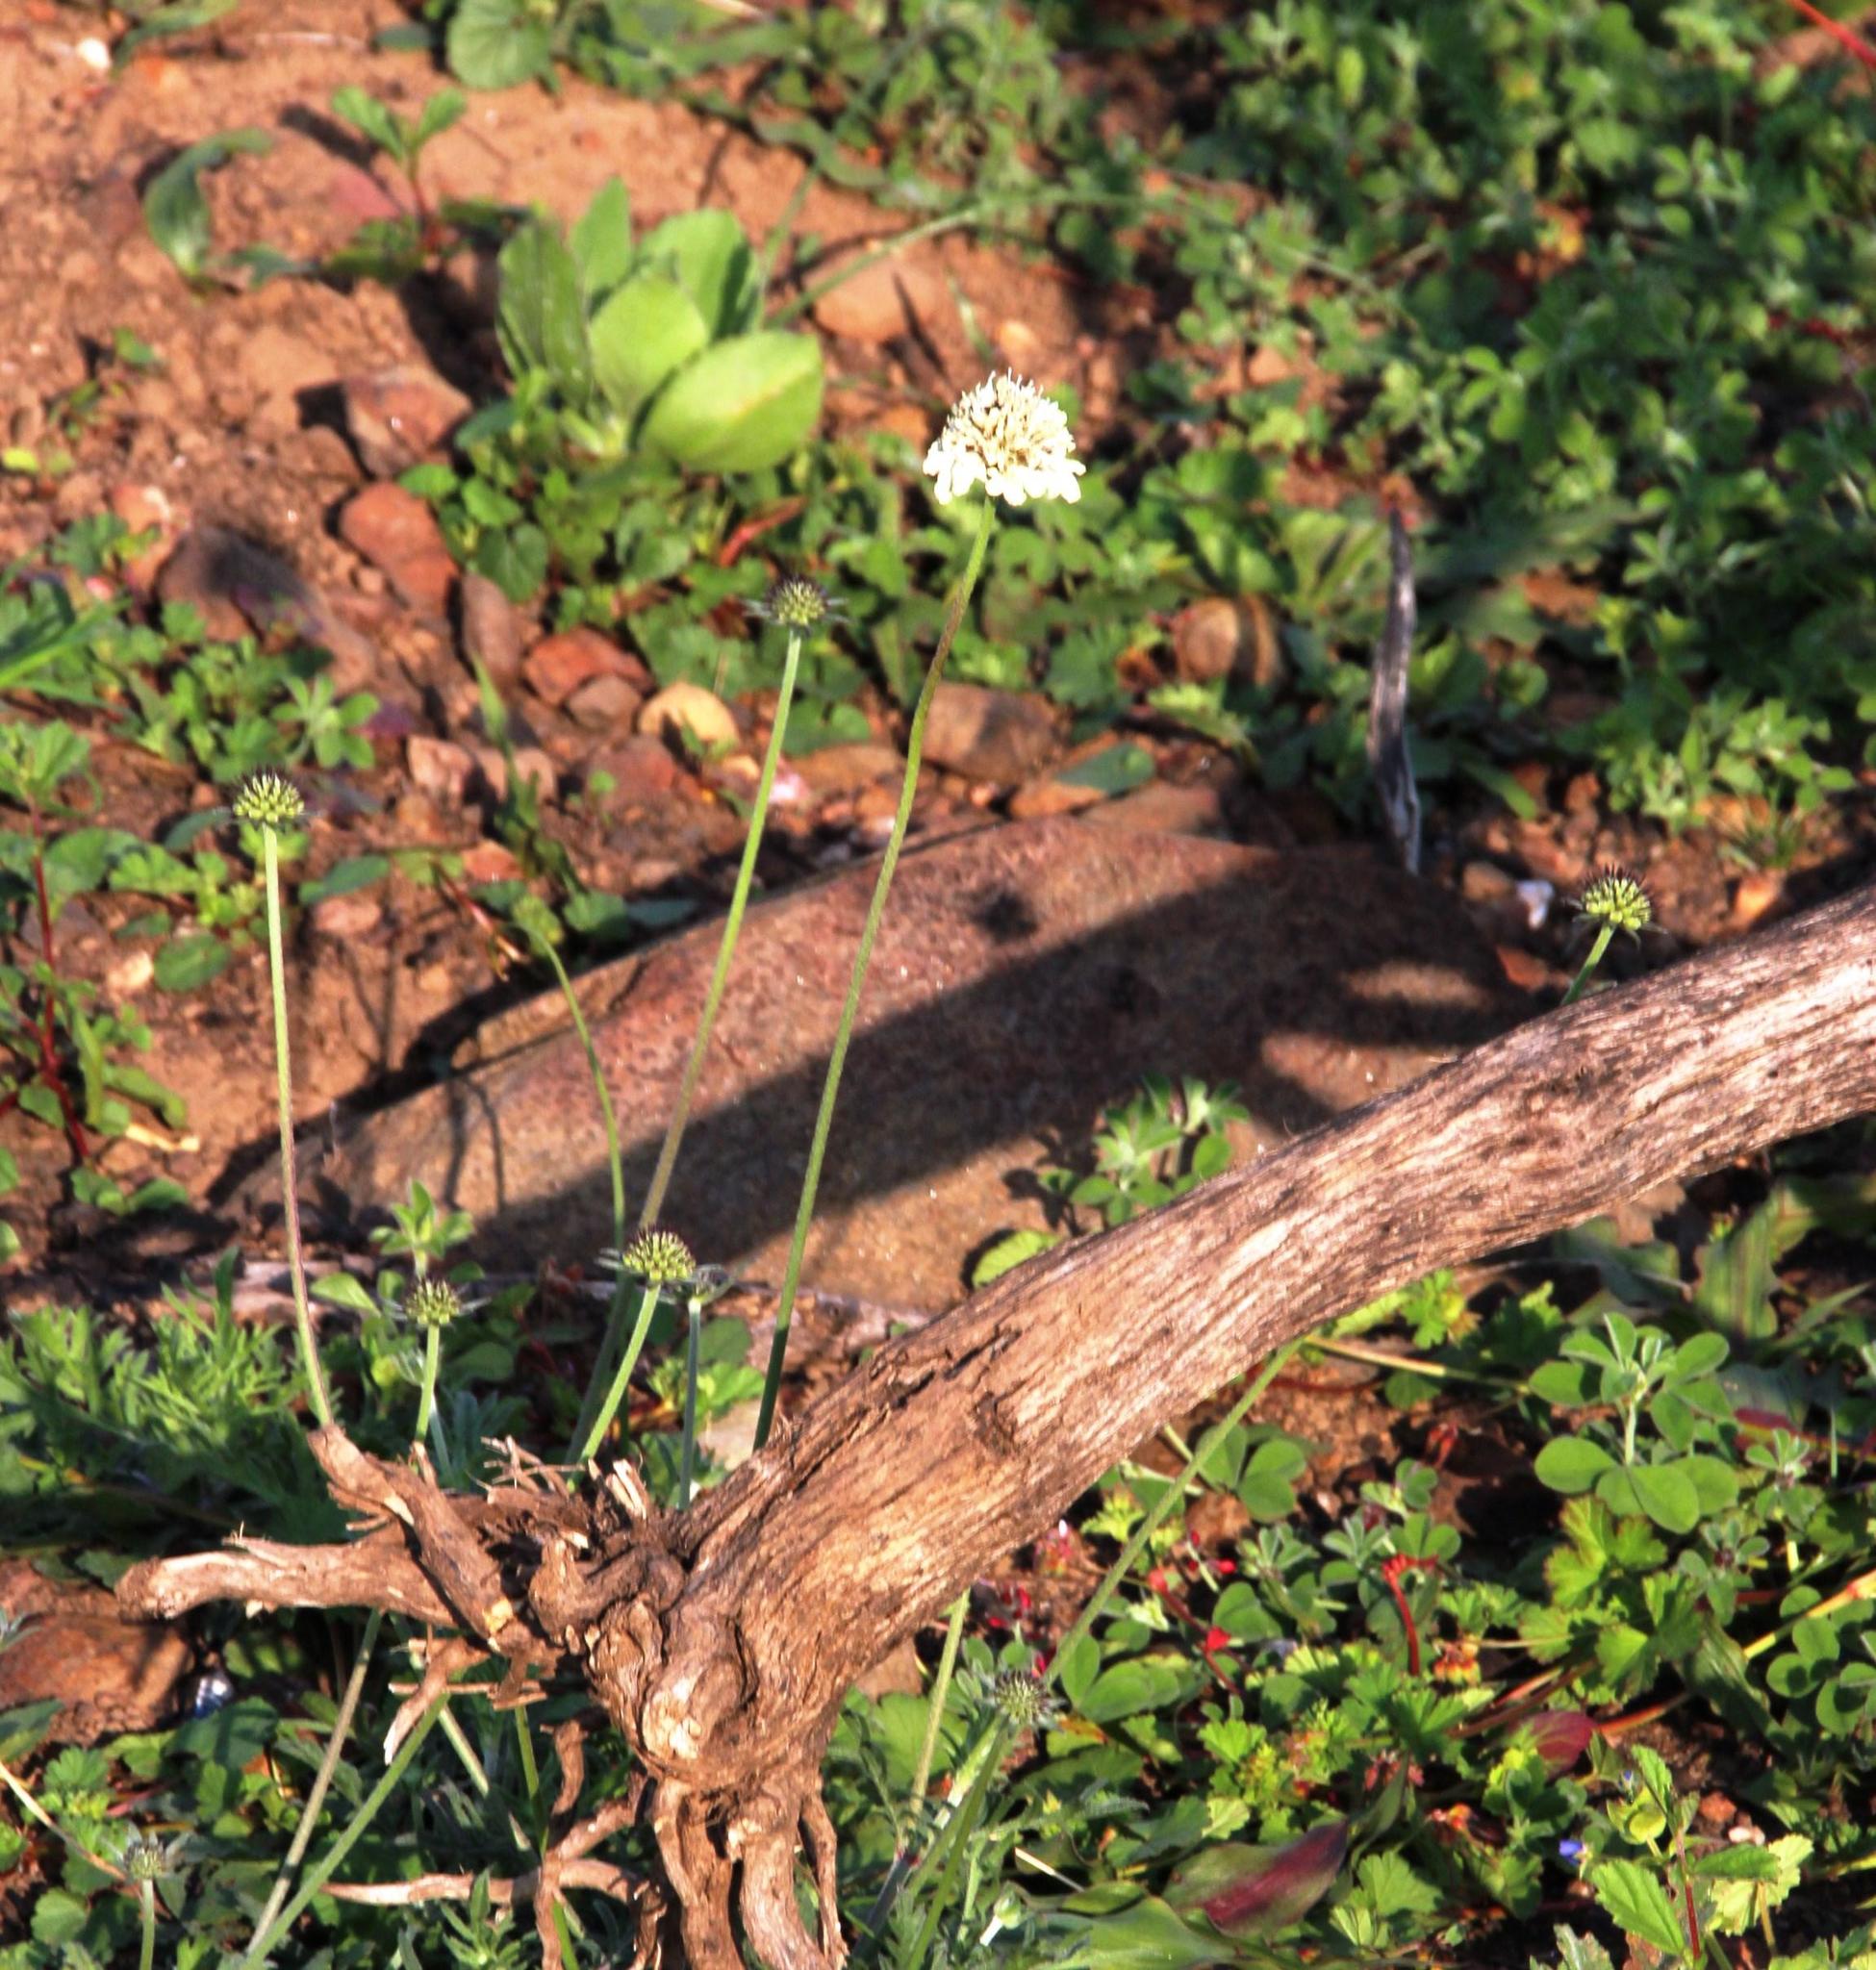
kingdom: Plantae
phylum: Tracheophyta
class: Magnoliopsida
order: Dipsacales
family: Caprifoliaceae
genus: Scabiosa
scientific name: Scabiosa columbaria
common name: Small scabious
